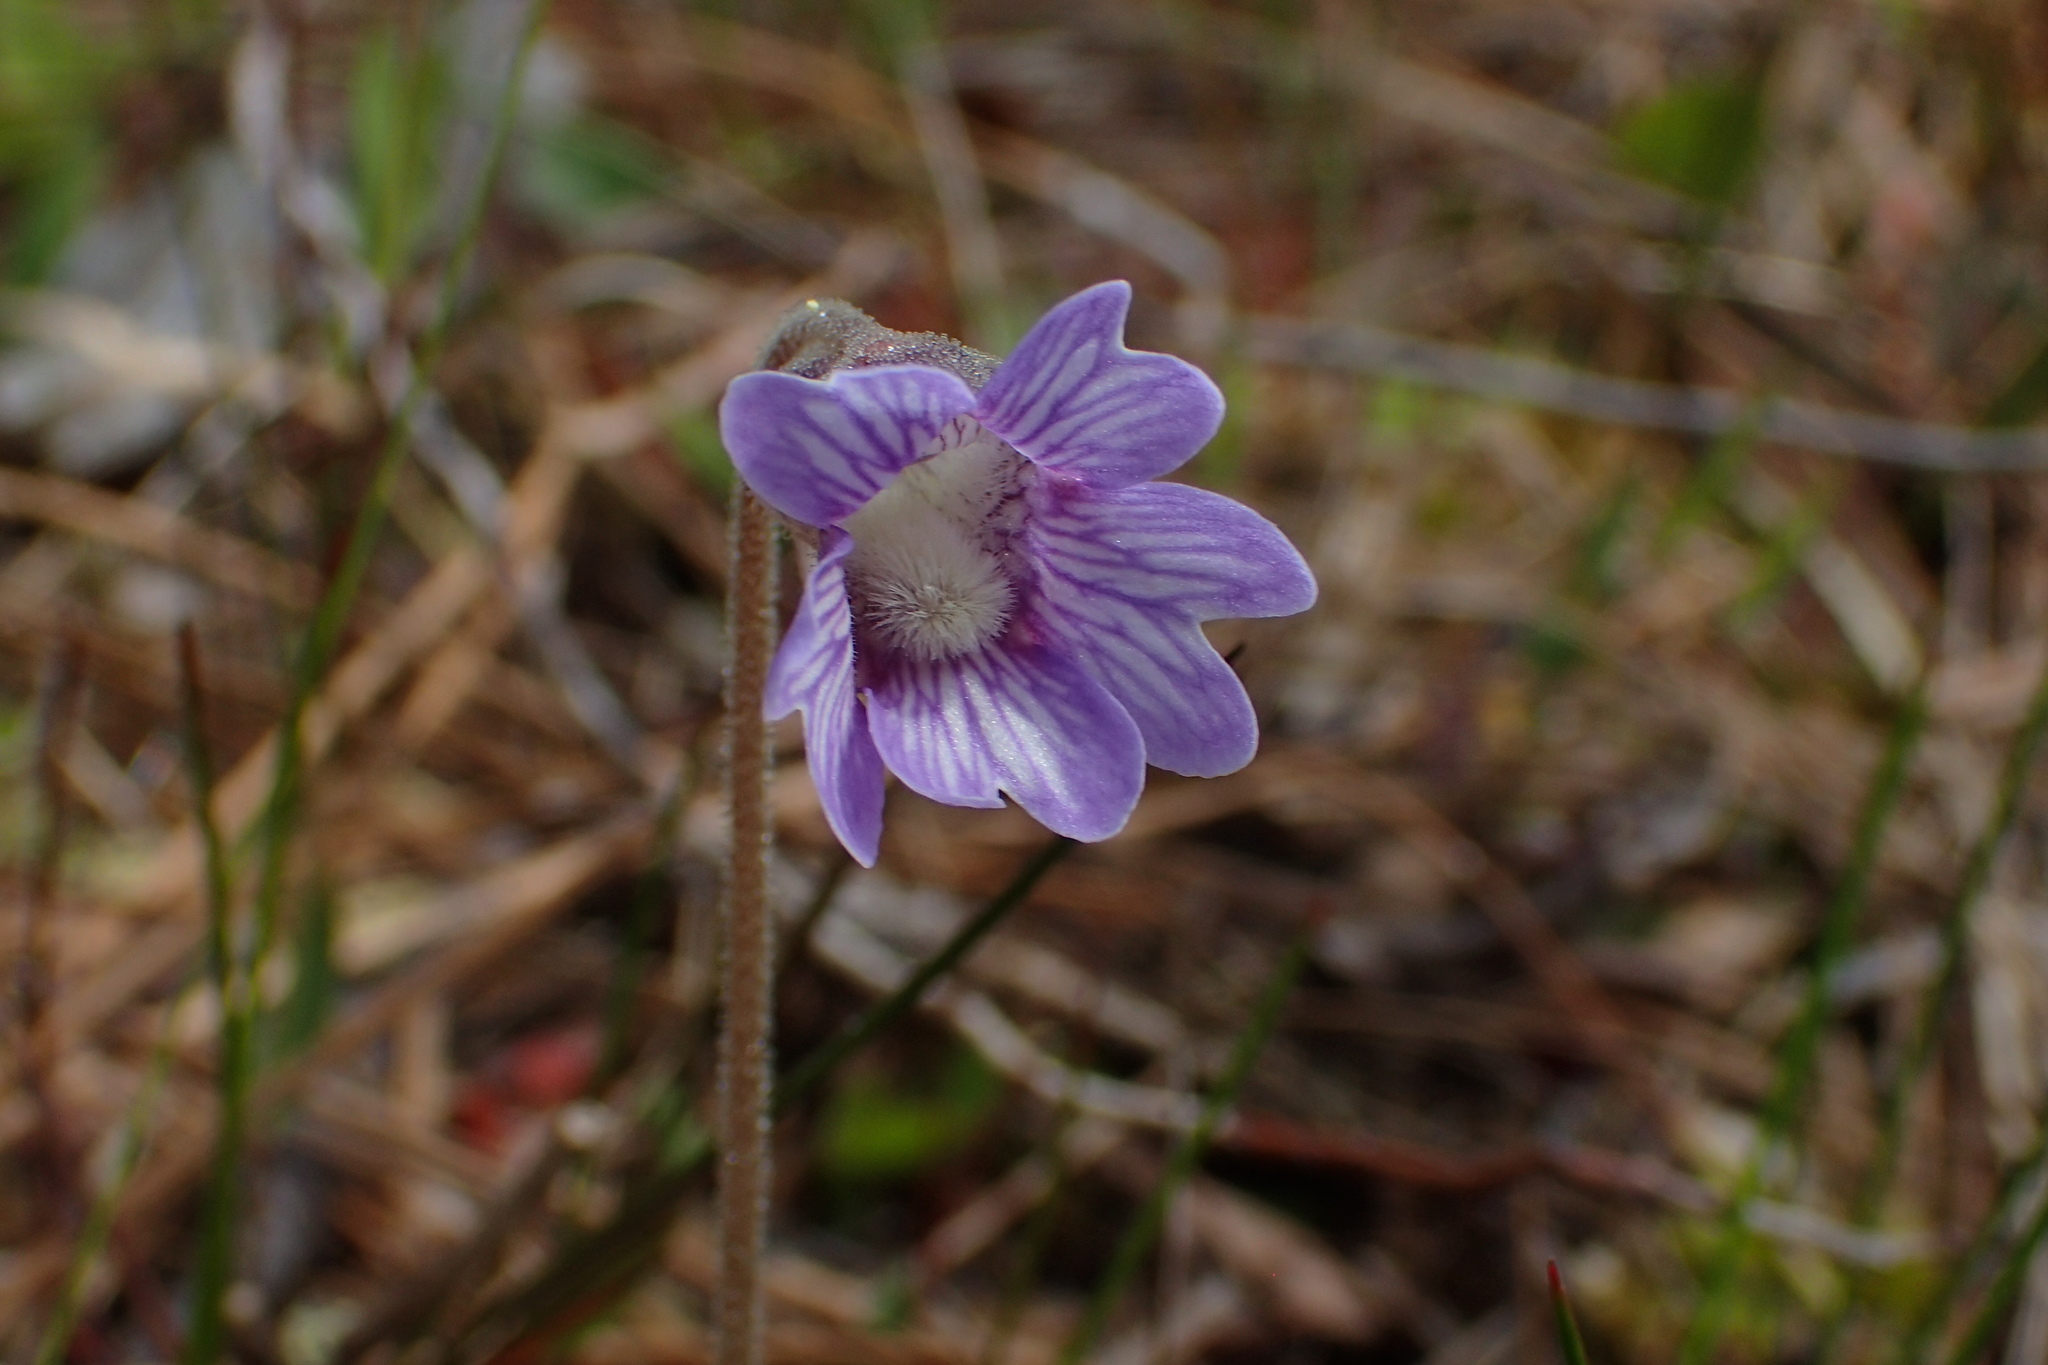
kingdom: Plantae
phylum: Tracheophyta
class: Magnoliopsida
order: Lamiales
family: Lentibulariaceae
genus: Pinguicula
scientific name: Pinguicula caerulea
